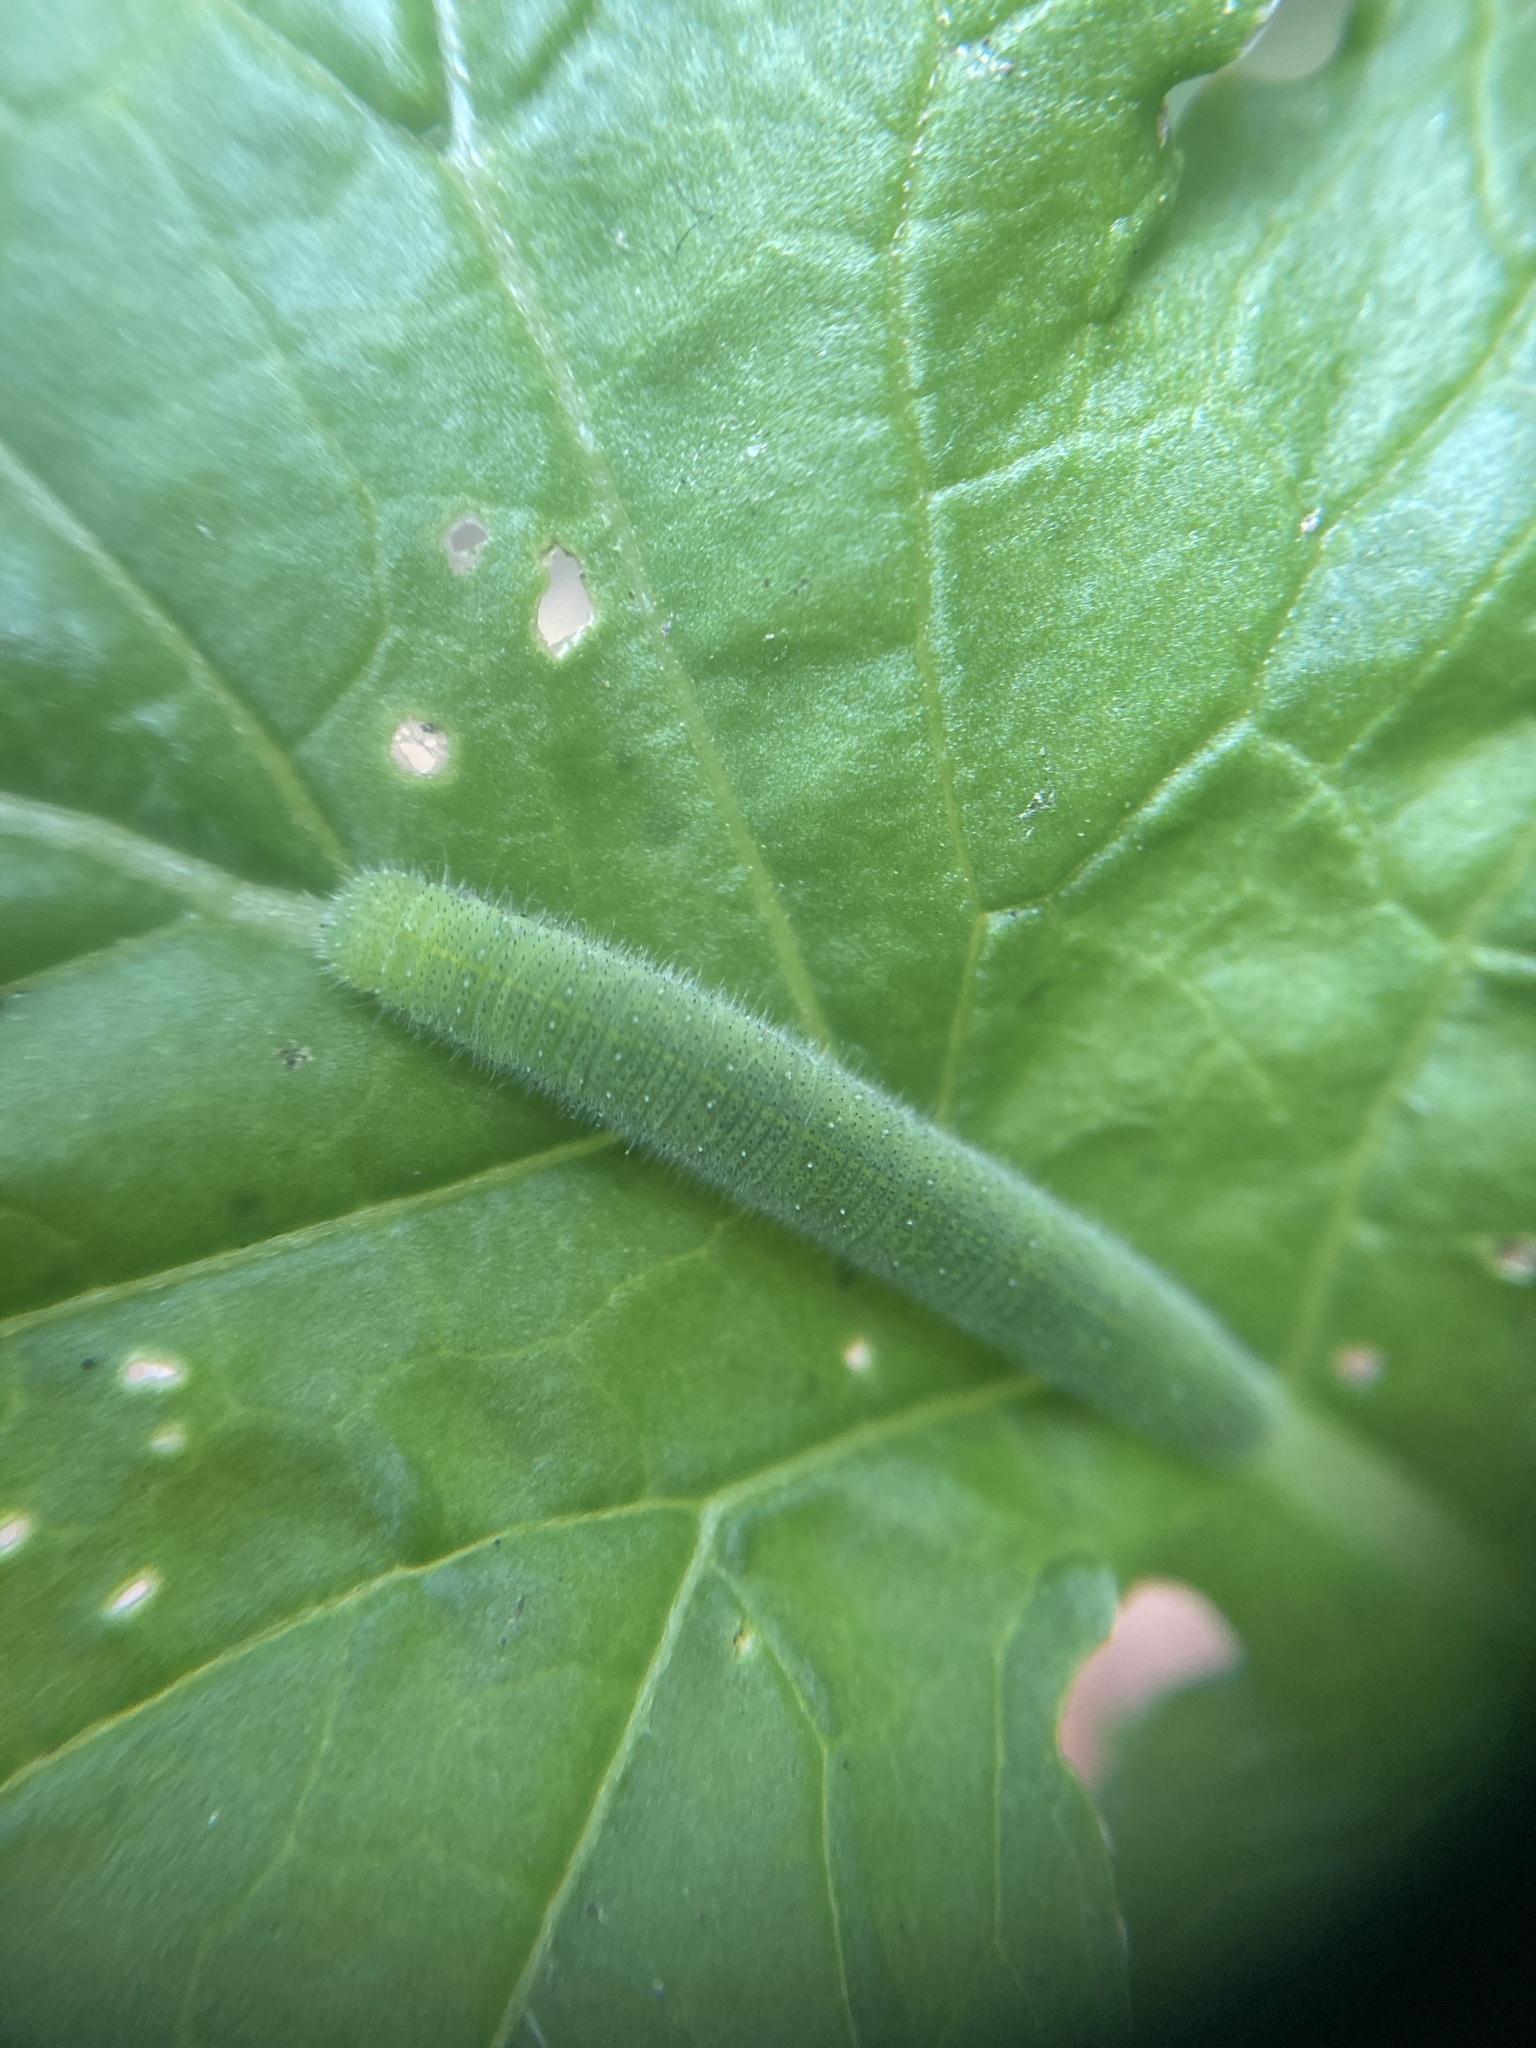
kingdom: Animalia
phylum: Arthropoda
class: Insecta
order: Lepidoptera
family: Pieridae
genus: Pieris
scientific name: Pieris rapae
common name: Small white
